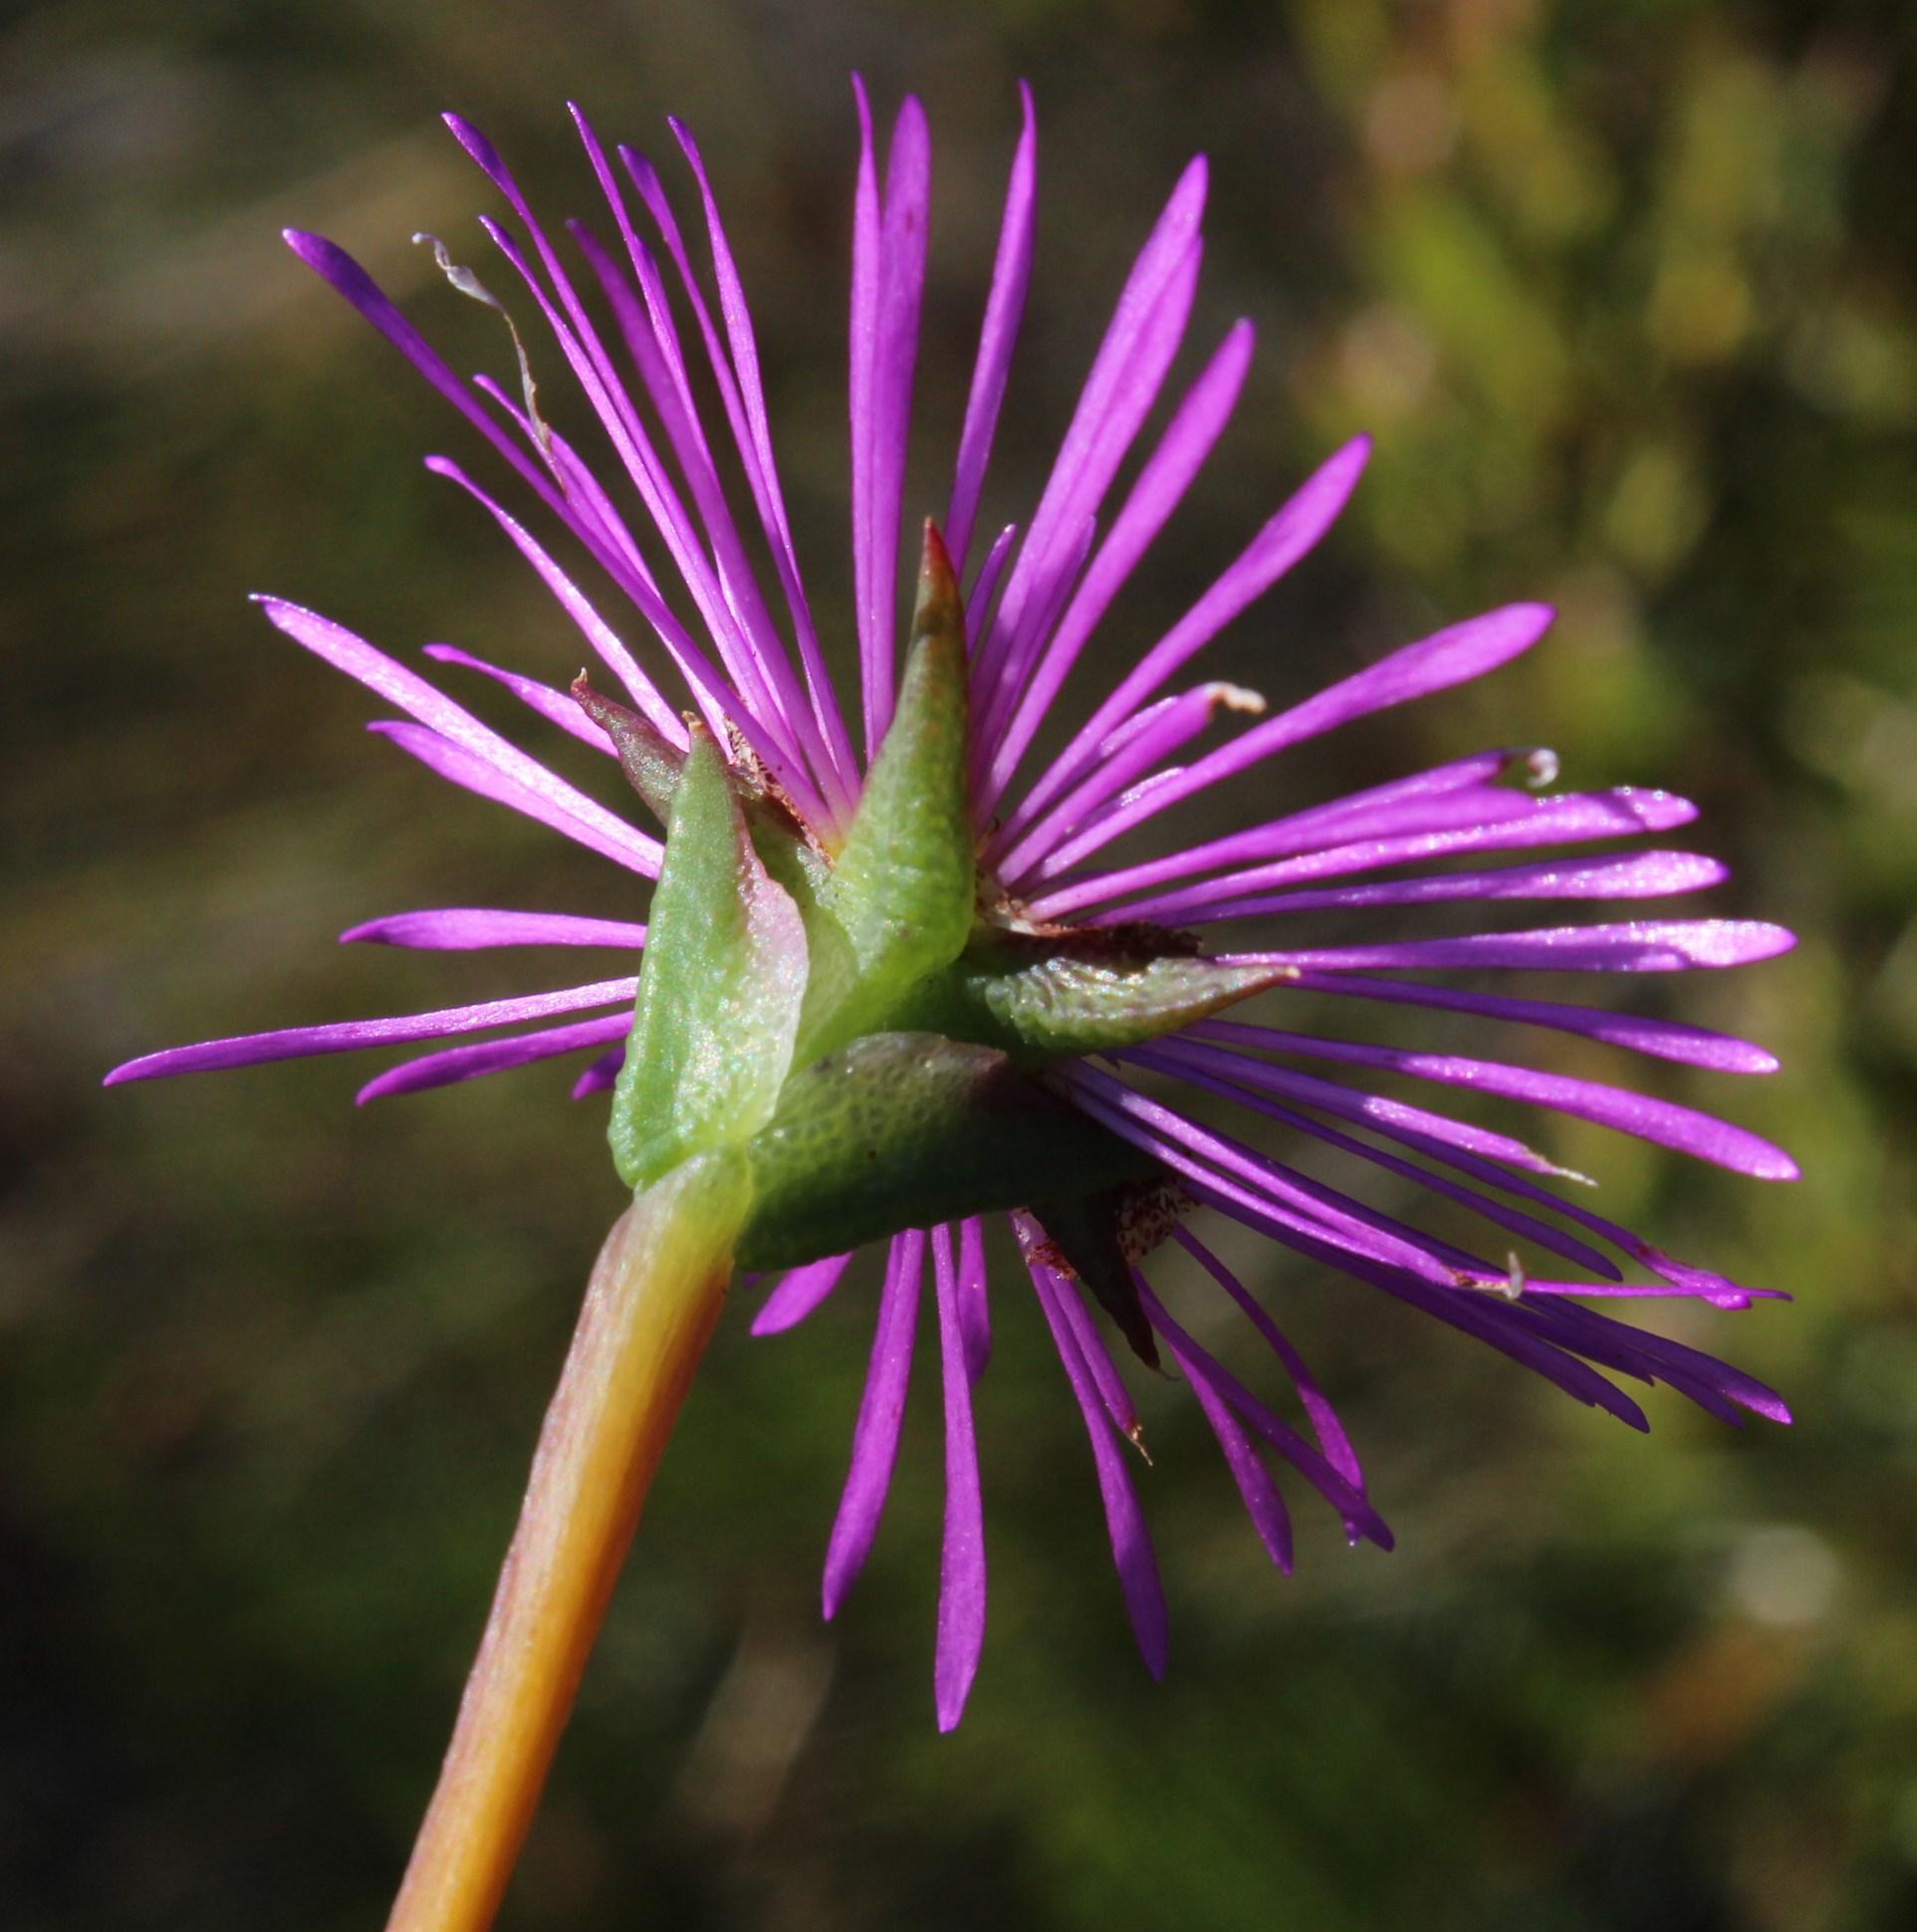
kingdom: Plantae
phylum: Tracheophyta
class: Magnoliopsida
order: Caryophyllales
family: Aizoaceae
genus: Erepsia
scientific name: Erepsia anceps
